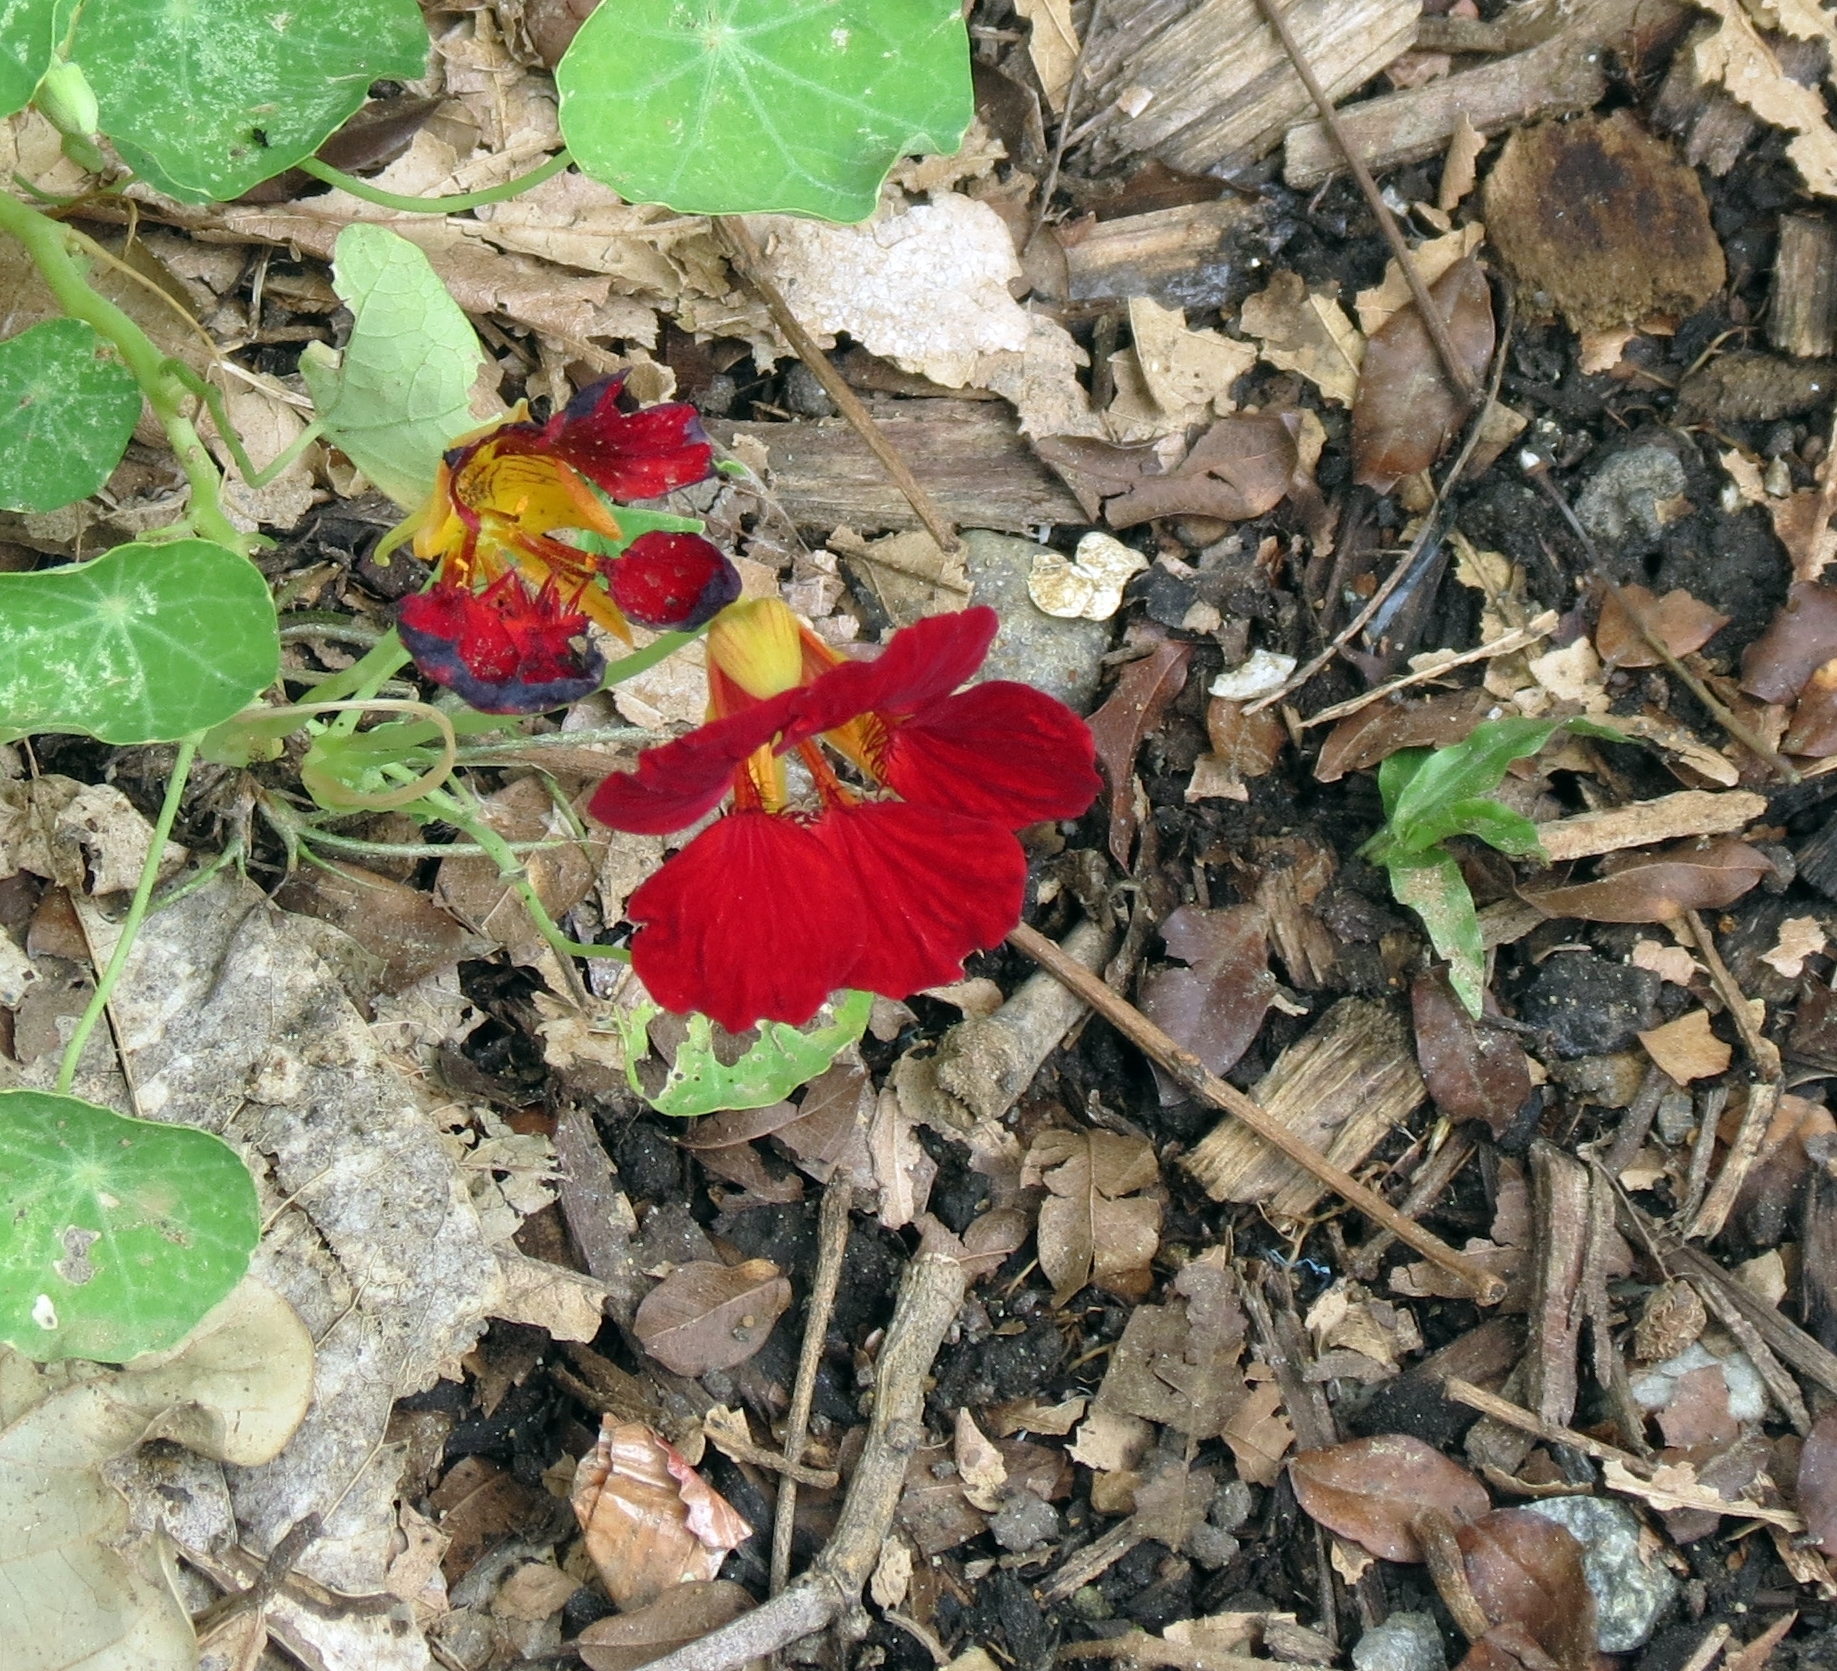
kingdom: Plantae
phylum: Tracheophyta
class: Magnoliopsida
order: Brassicales
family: Tropaeolaceae
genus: Tropaeolum
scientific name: Tropaeolum majus
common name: Nasturtium
